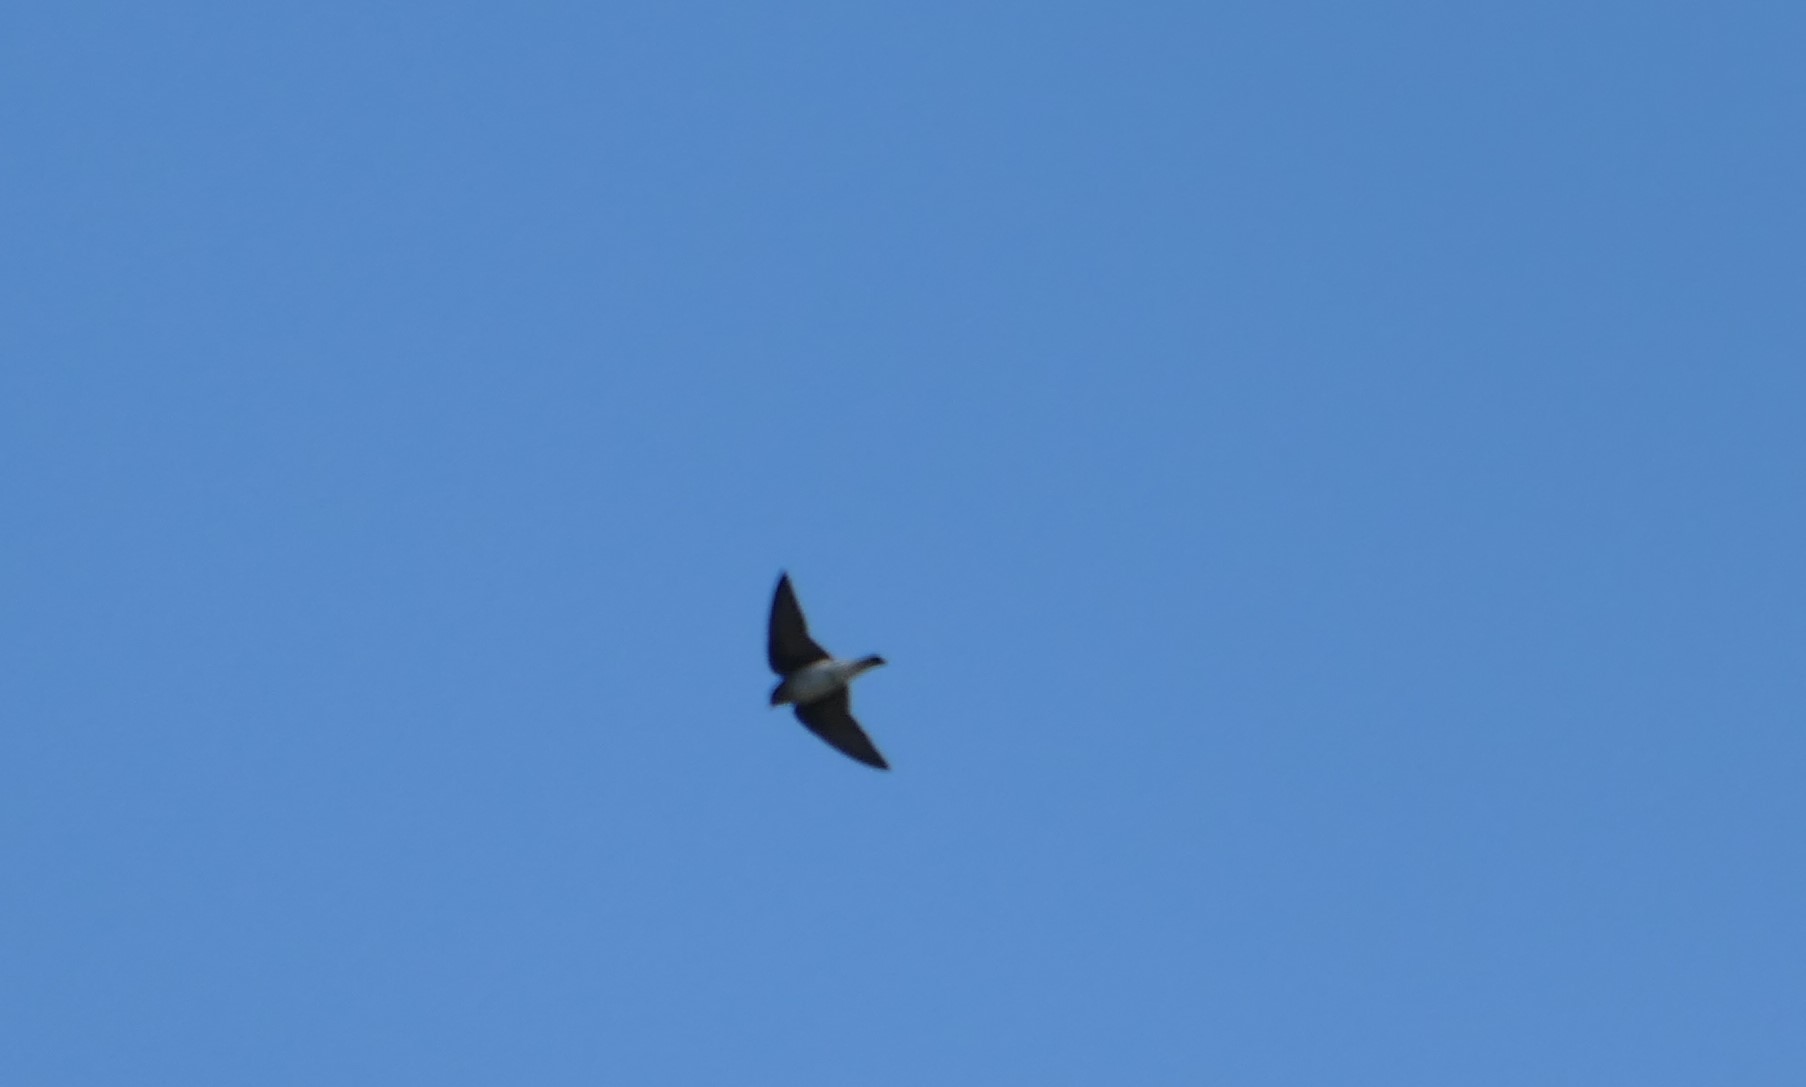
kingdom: Animalia
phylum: Chordata
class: Aves
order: Passeriformes
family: Hirundinidae
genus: Stelgidopteryx
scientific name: Stelgidopteryx serripennis
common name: Northern rough-winged swallow
